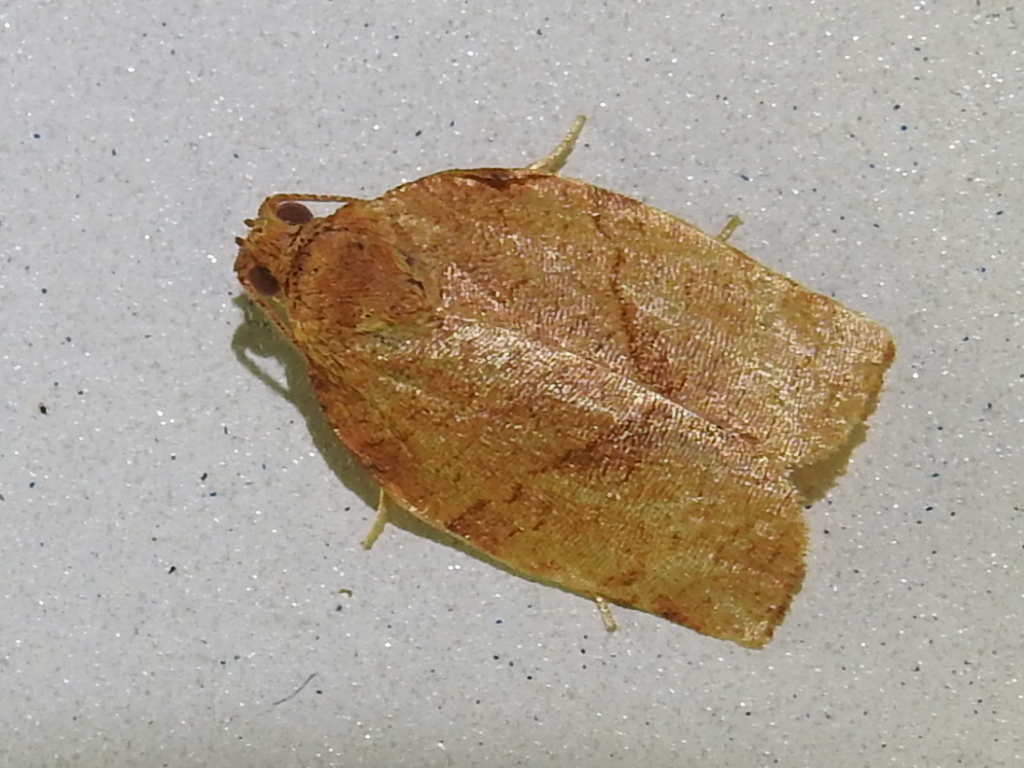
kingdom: Animalia
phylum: Arthropoda
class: Insecta
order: Lepidoptera
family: Tortricidae
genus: Choristoneura
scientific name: Choristoneura rosaceana
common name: Oblique-banded leafroller moth
